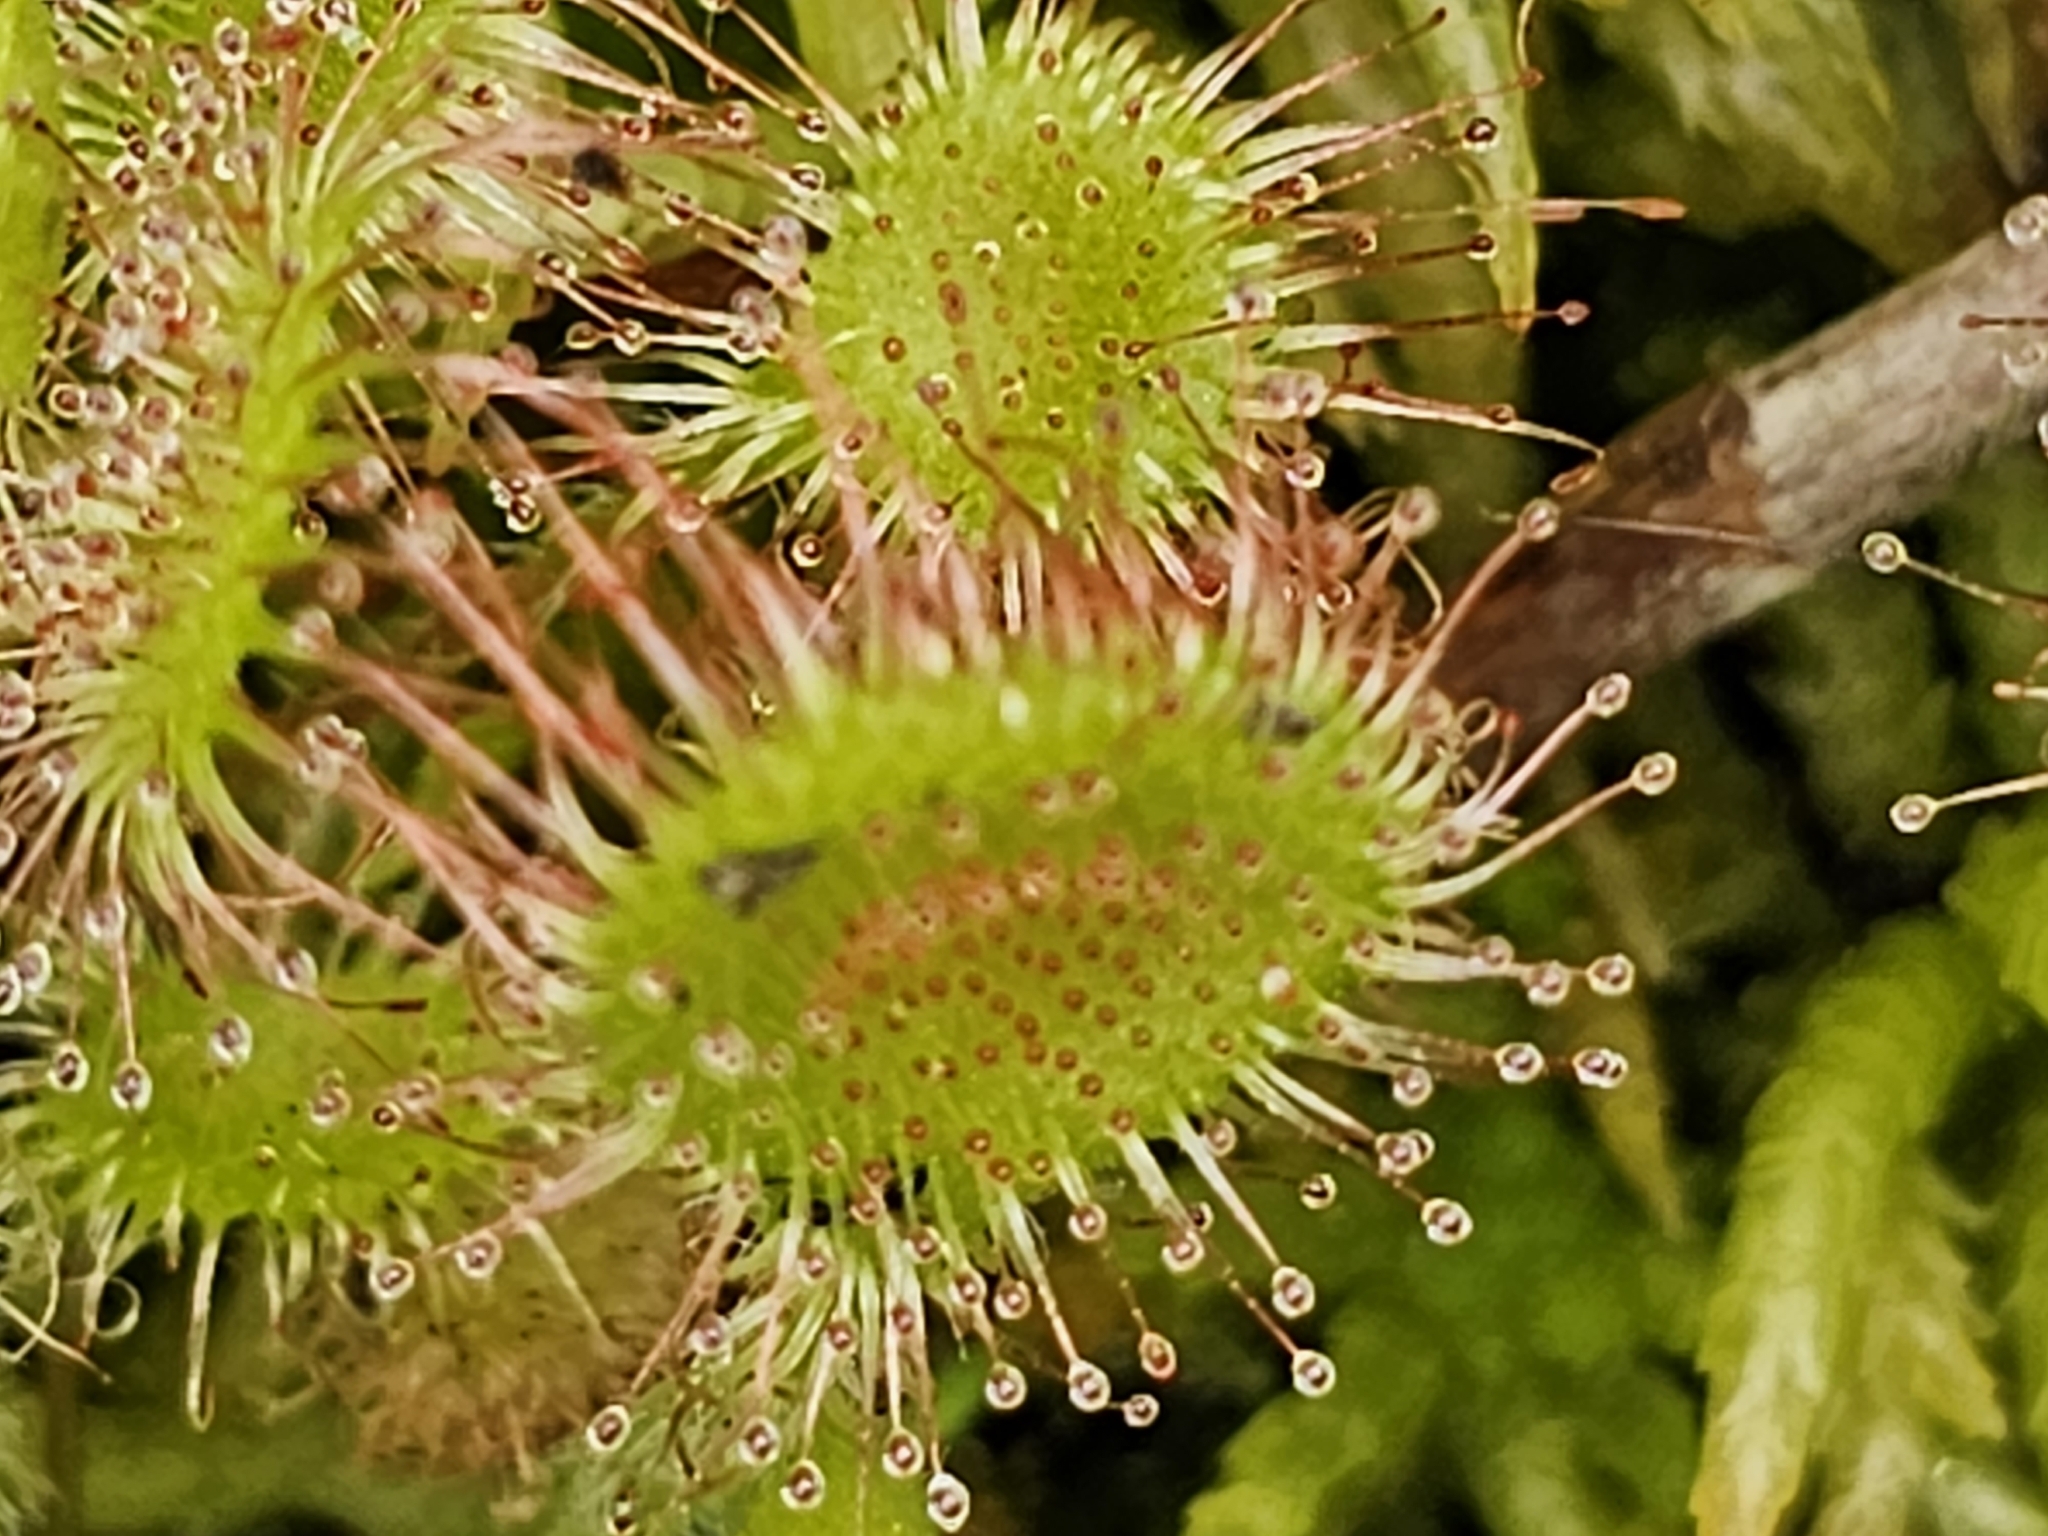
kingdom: Plantae
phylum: Tracheophyta
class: Magnoliopsida
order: Caryophyllales
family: Droseraceae
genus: Drosera
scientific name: Drosera rotundifolia
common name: Round-leaved sundew
